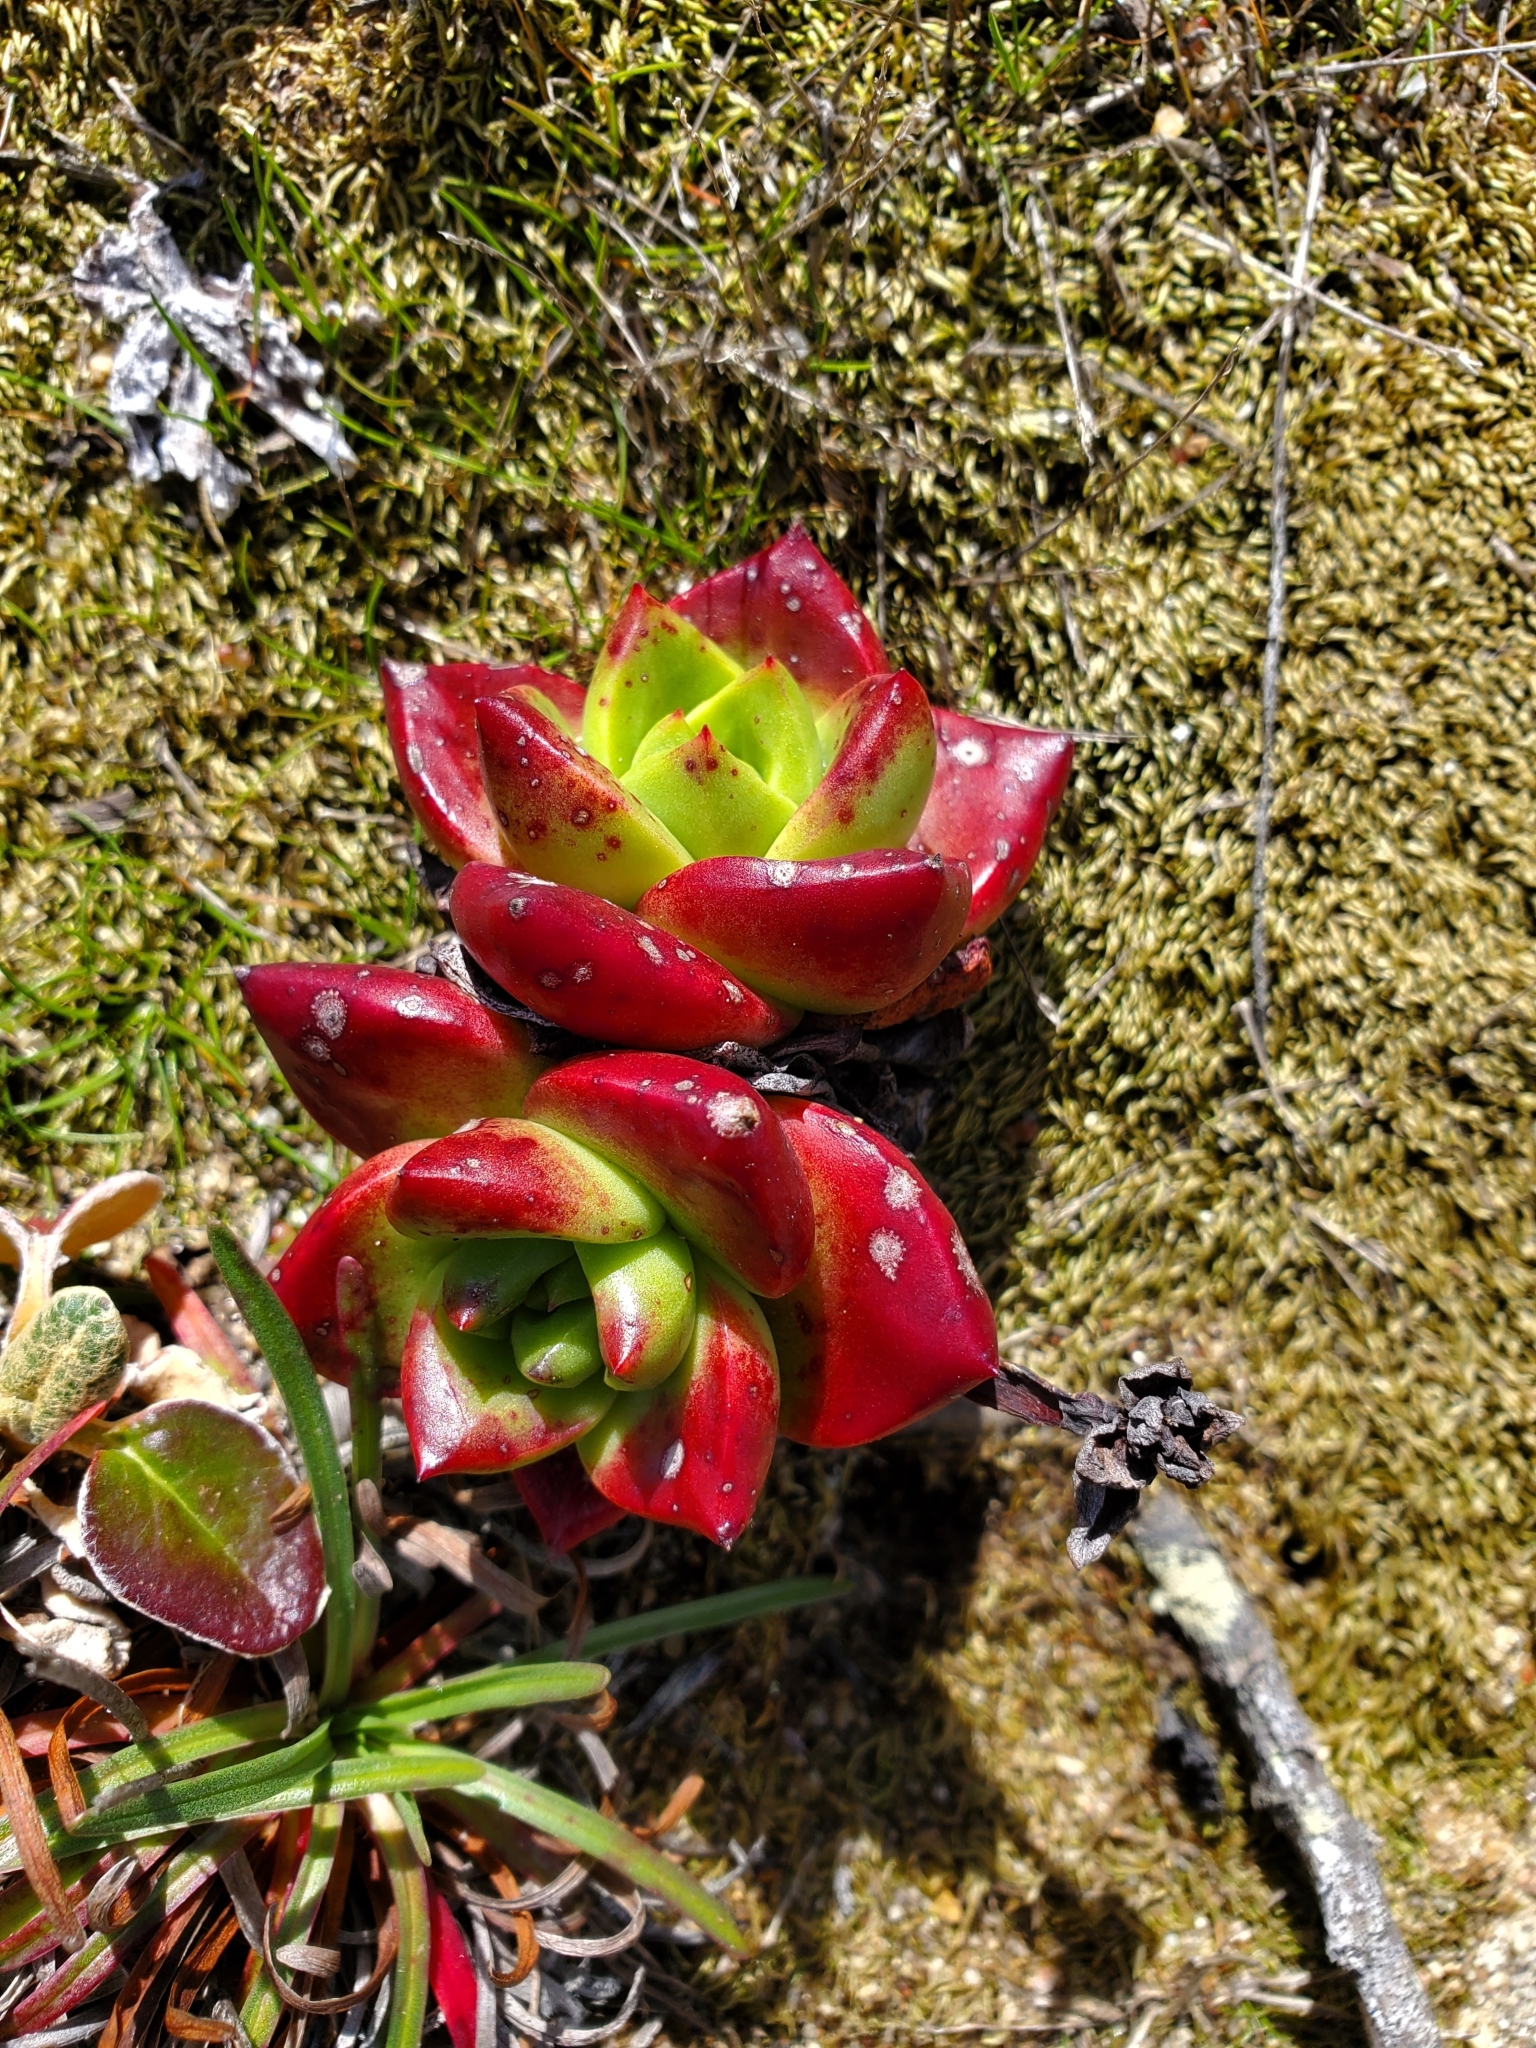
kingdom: Plantae
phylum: Tracheophyta
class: Magnoliopsida
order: Saxifragales
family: Crassulaceae
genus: Dudleya
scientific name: Dudleya farinosa
